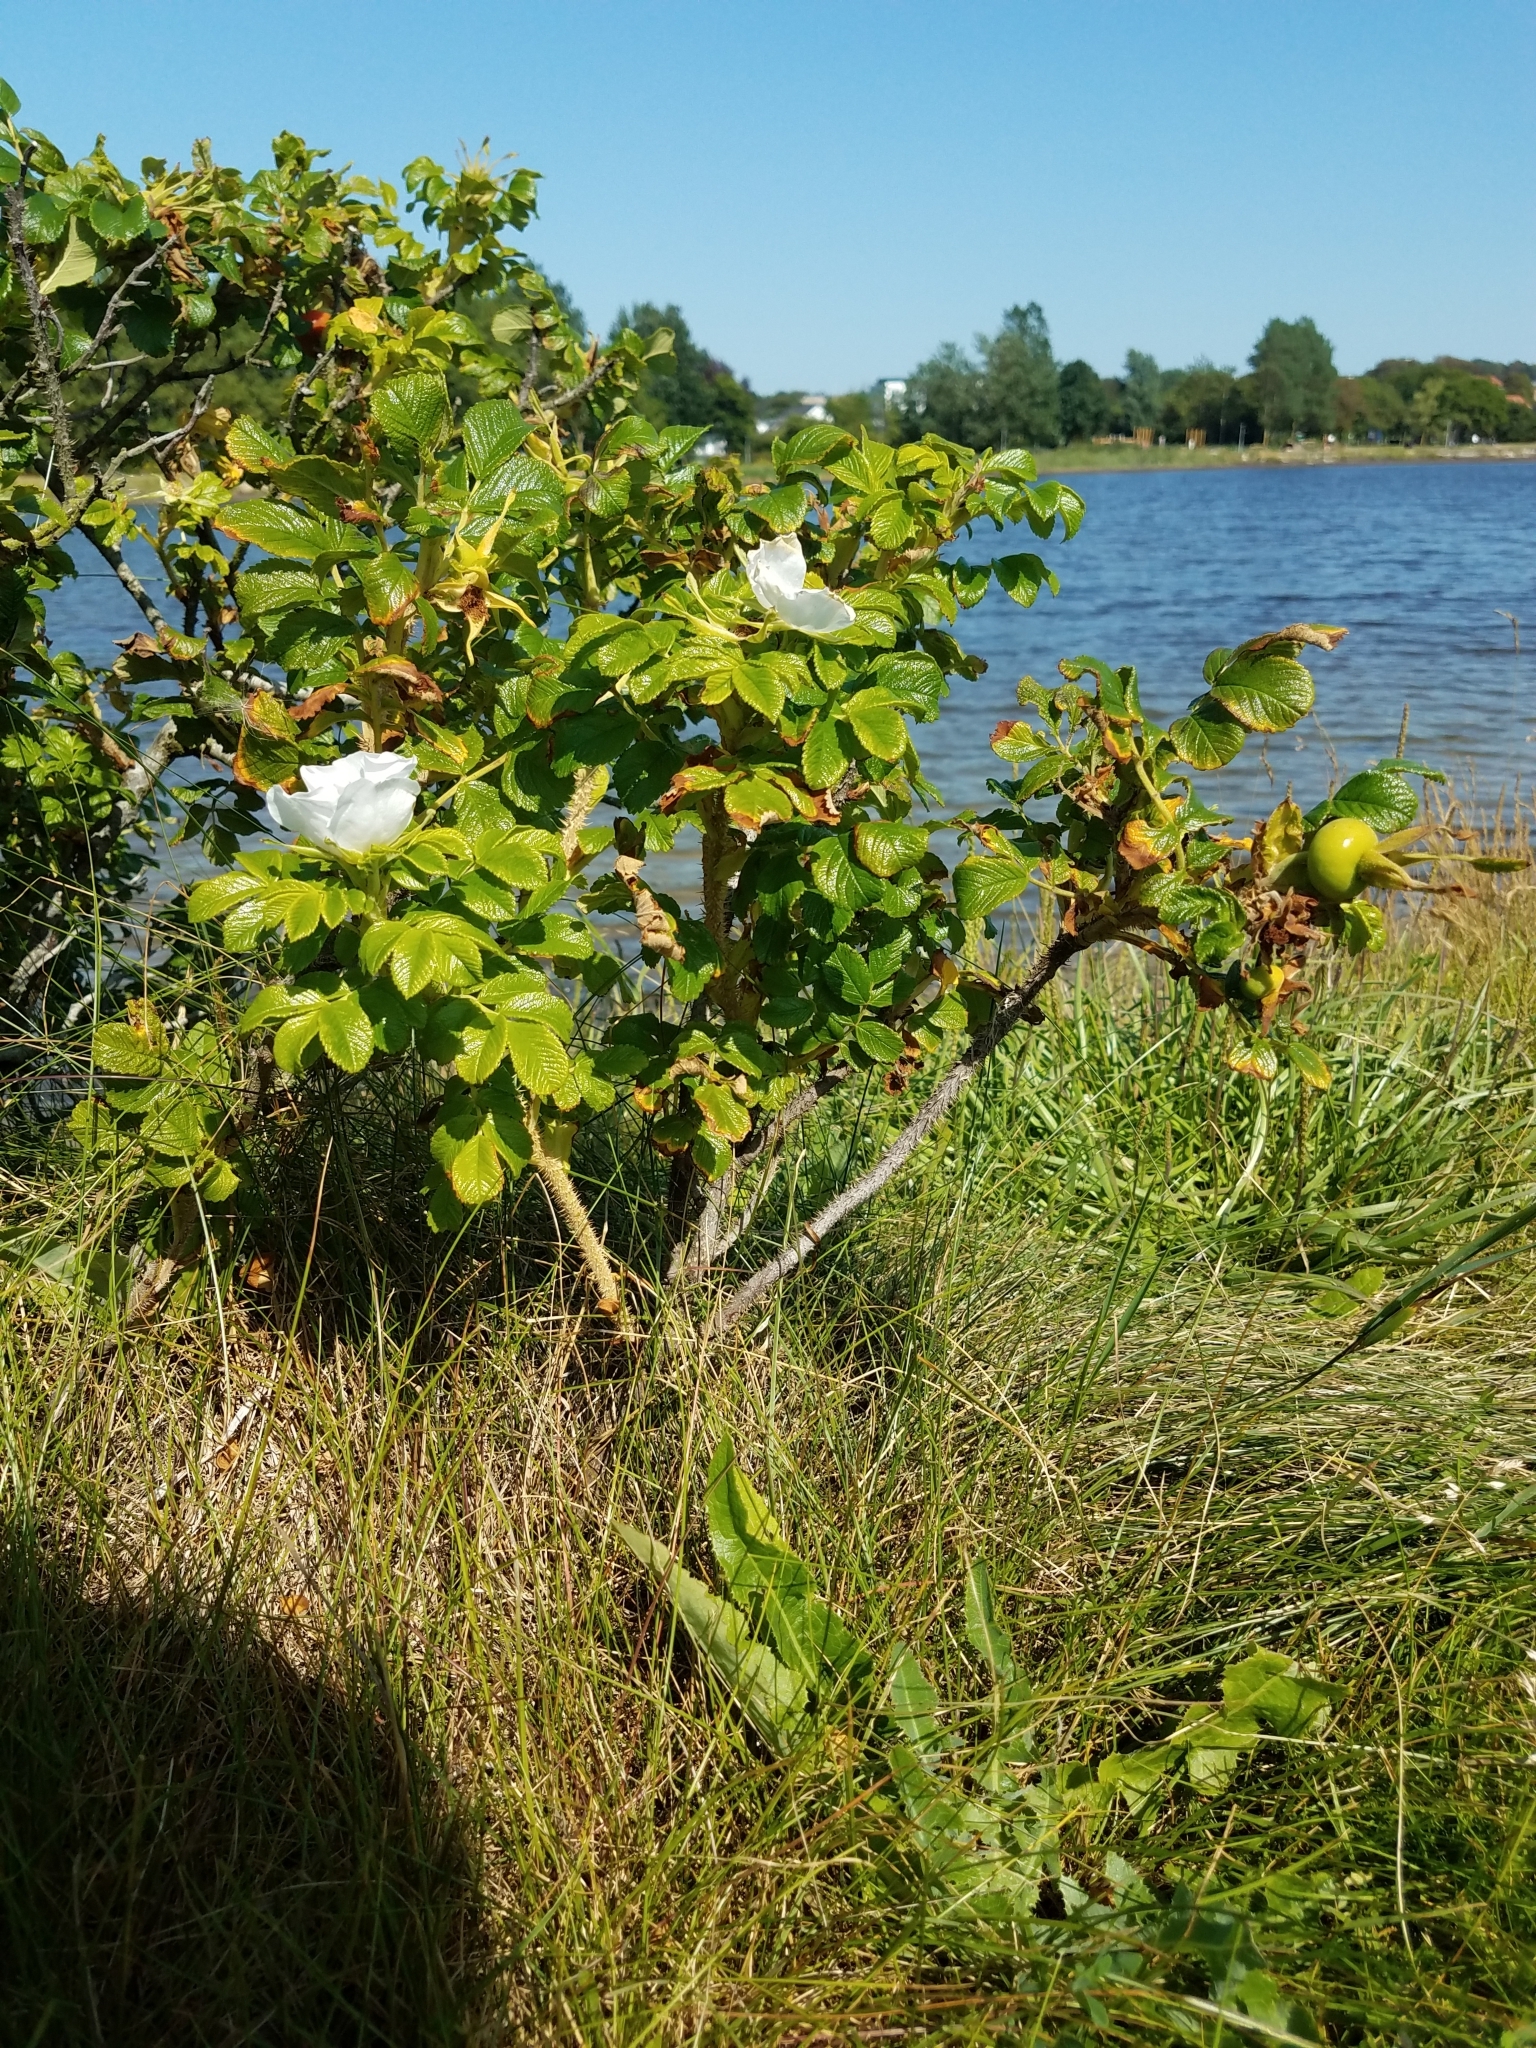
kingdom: Plantae
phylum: Tracheophyta
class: Magnoliopsida
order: Rosales
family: Rosaceae
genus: Rosa
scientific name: Rosa rugosa
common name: Japanese rose
